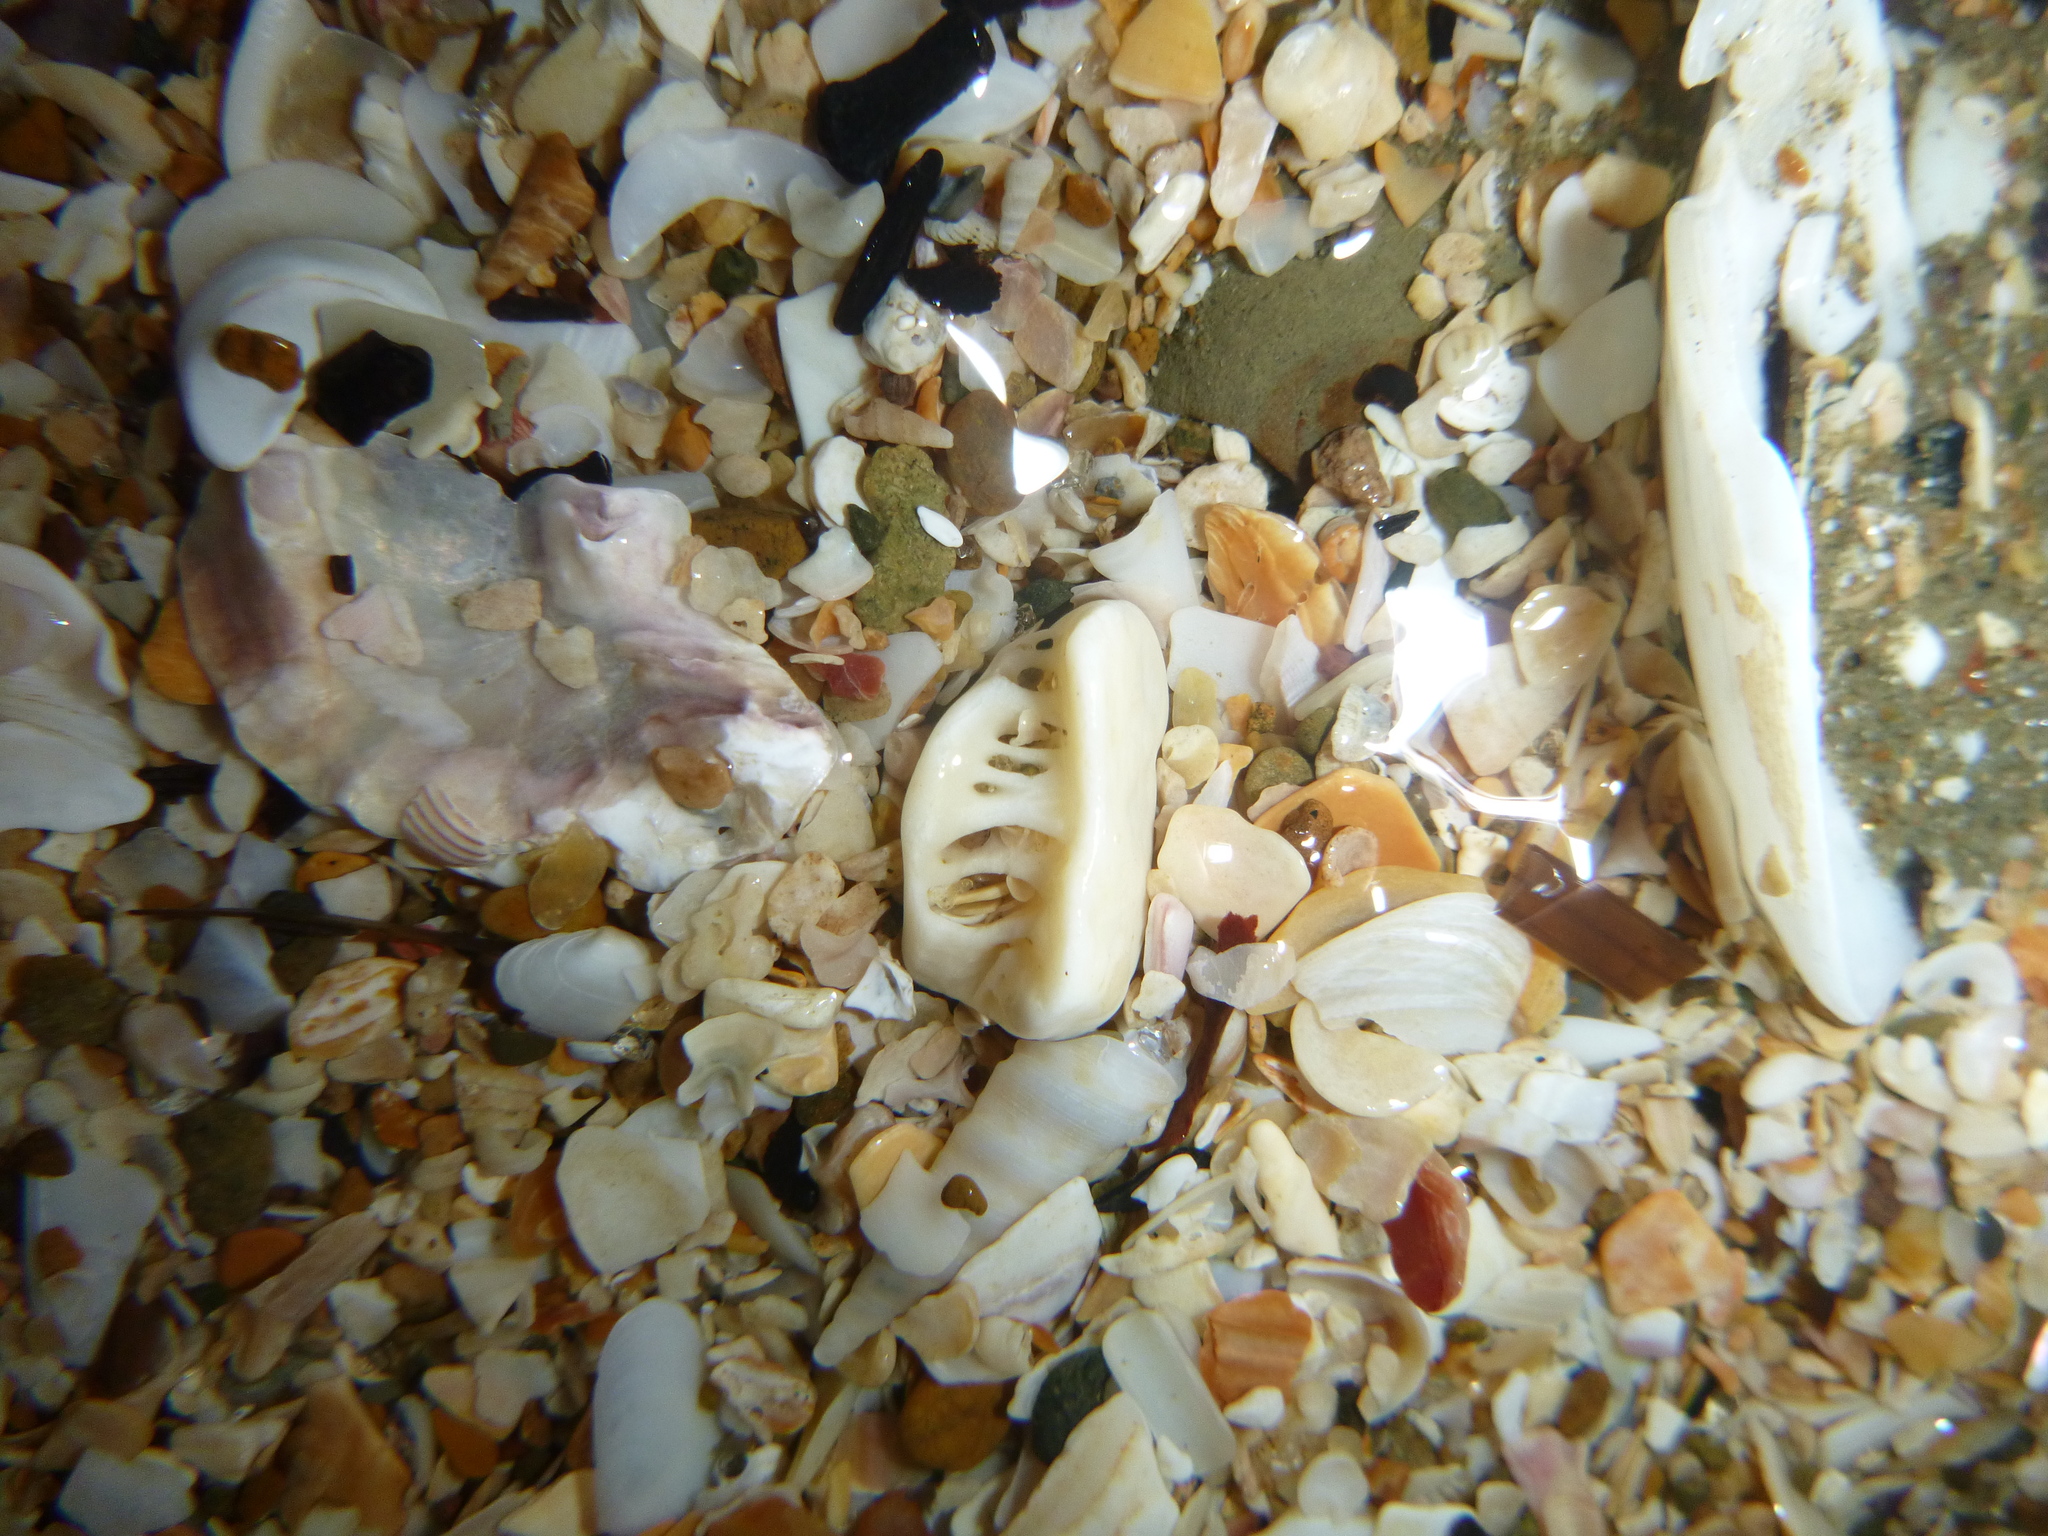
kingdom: Animalia
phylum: Echinodermata
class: Echinoidea
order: Clypeasteroida
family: Clypeasteridae
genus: Fellaster
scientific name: Fellaster zelandiae
